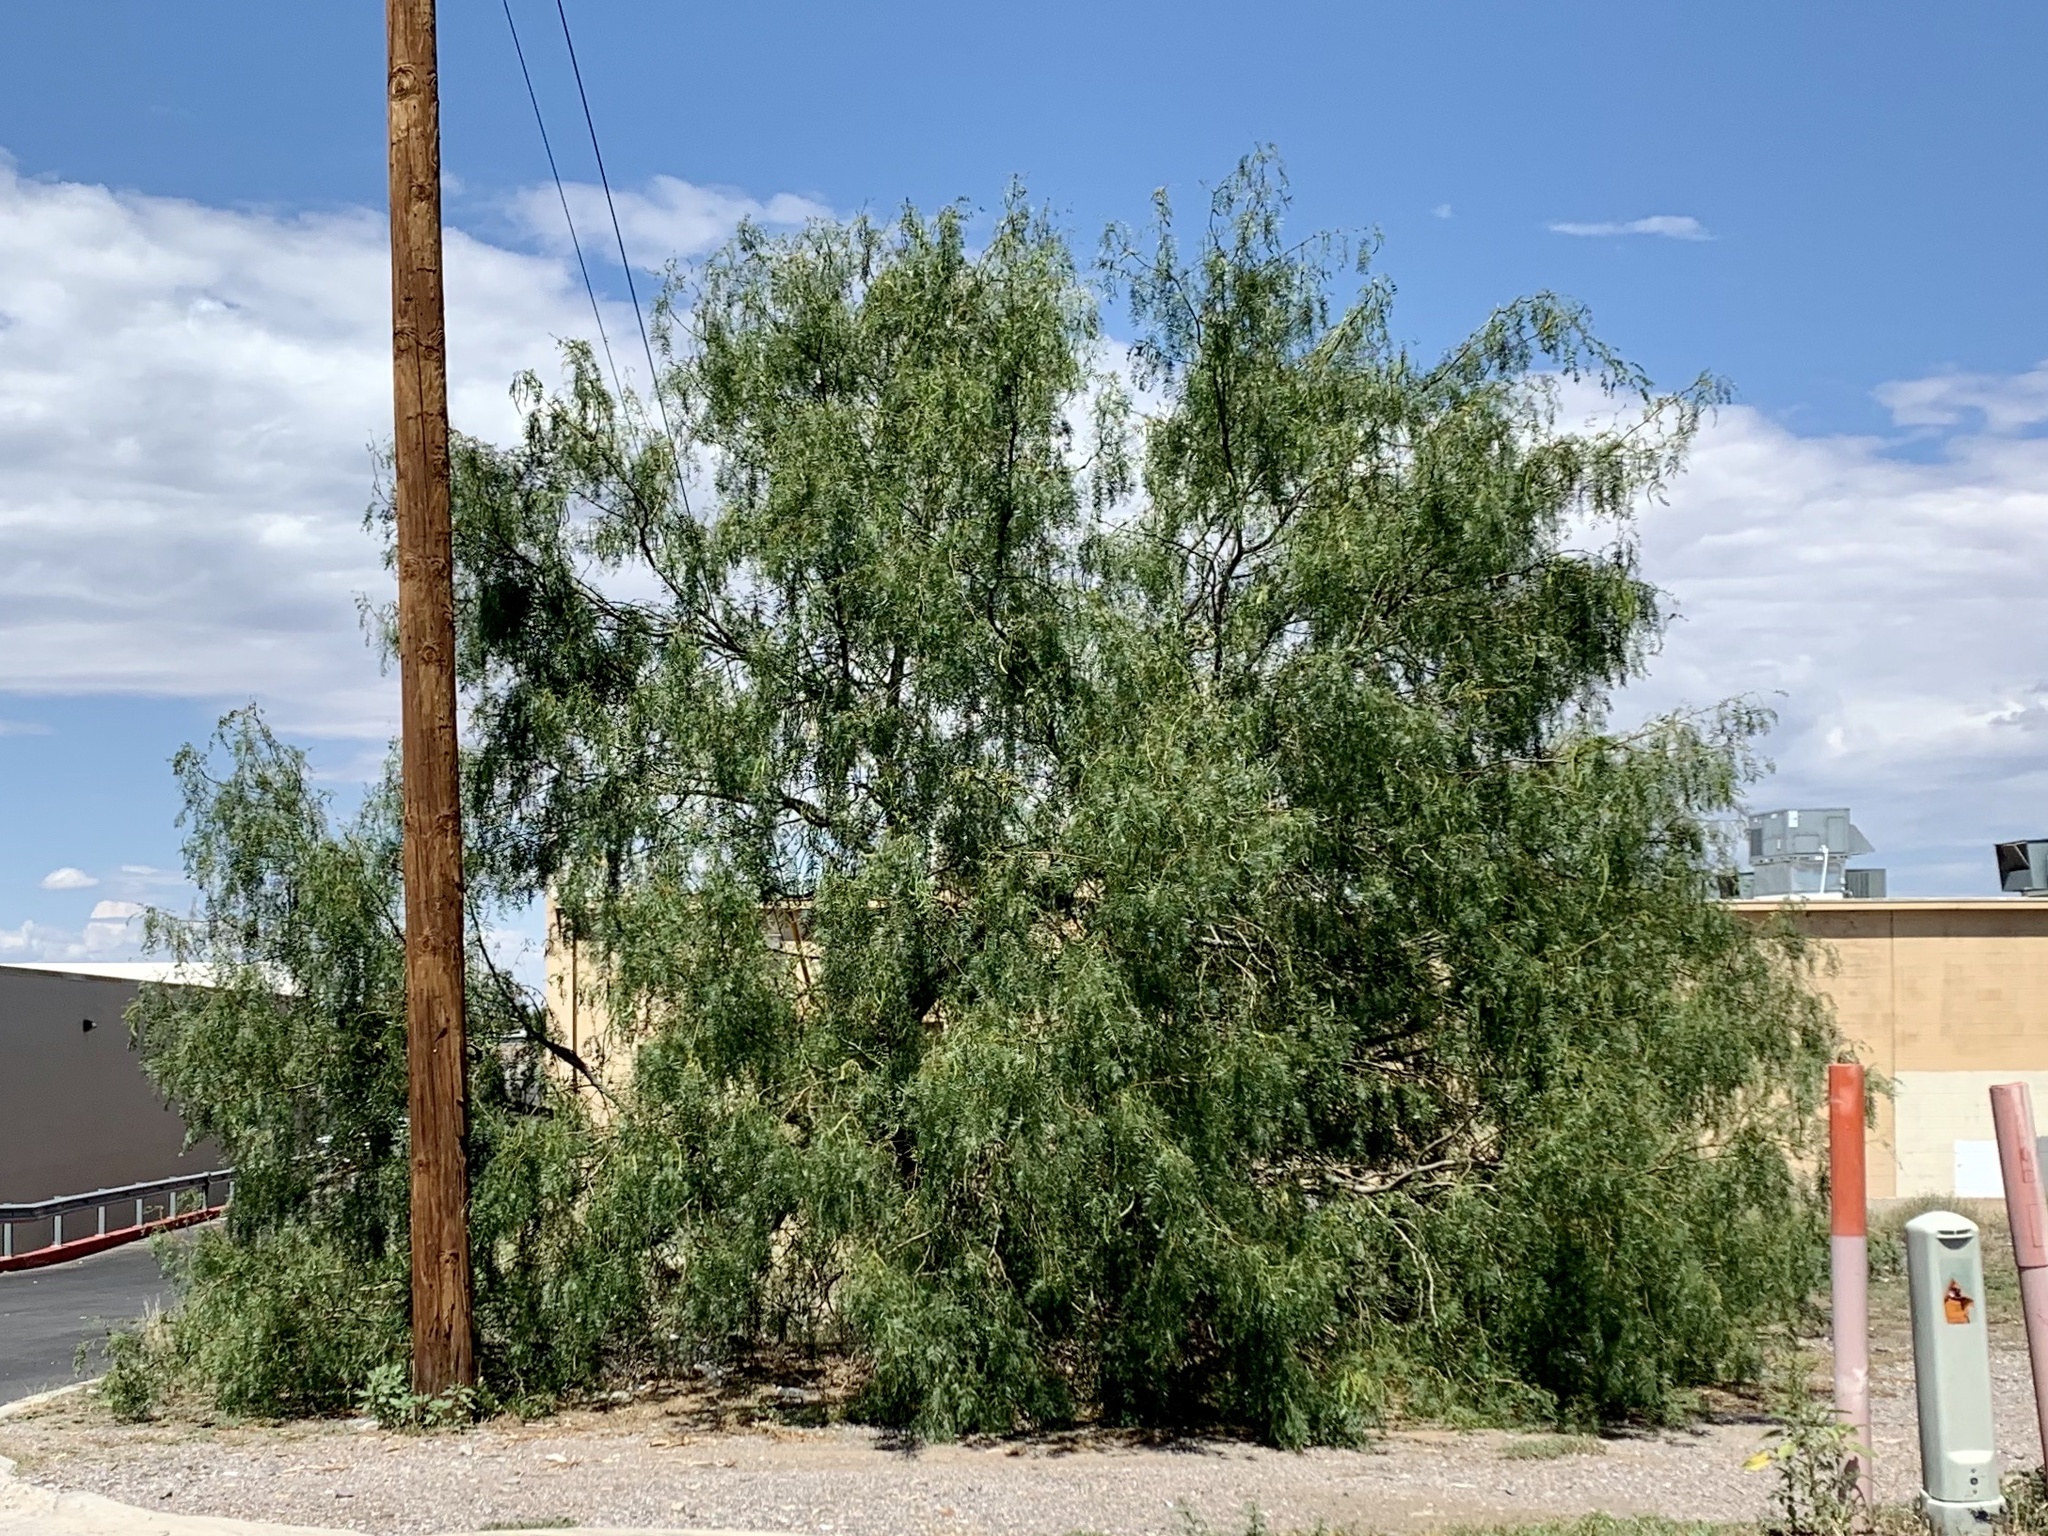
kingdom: Plantae
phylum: Tracheophyta
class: Magnoliopsida
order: Fabales
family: Fabaceae
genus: Prosopis
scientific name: Prosopis glandulosa
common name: Honey mesquite
